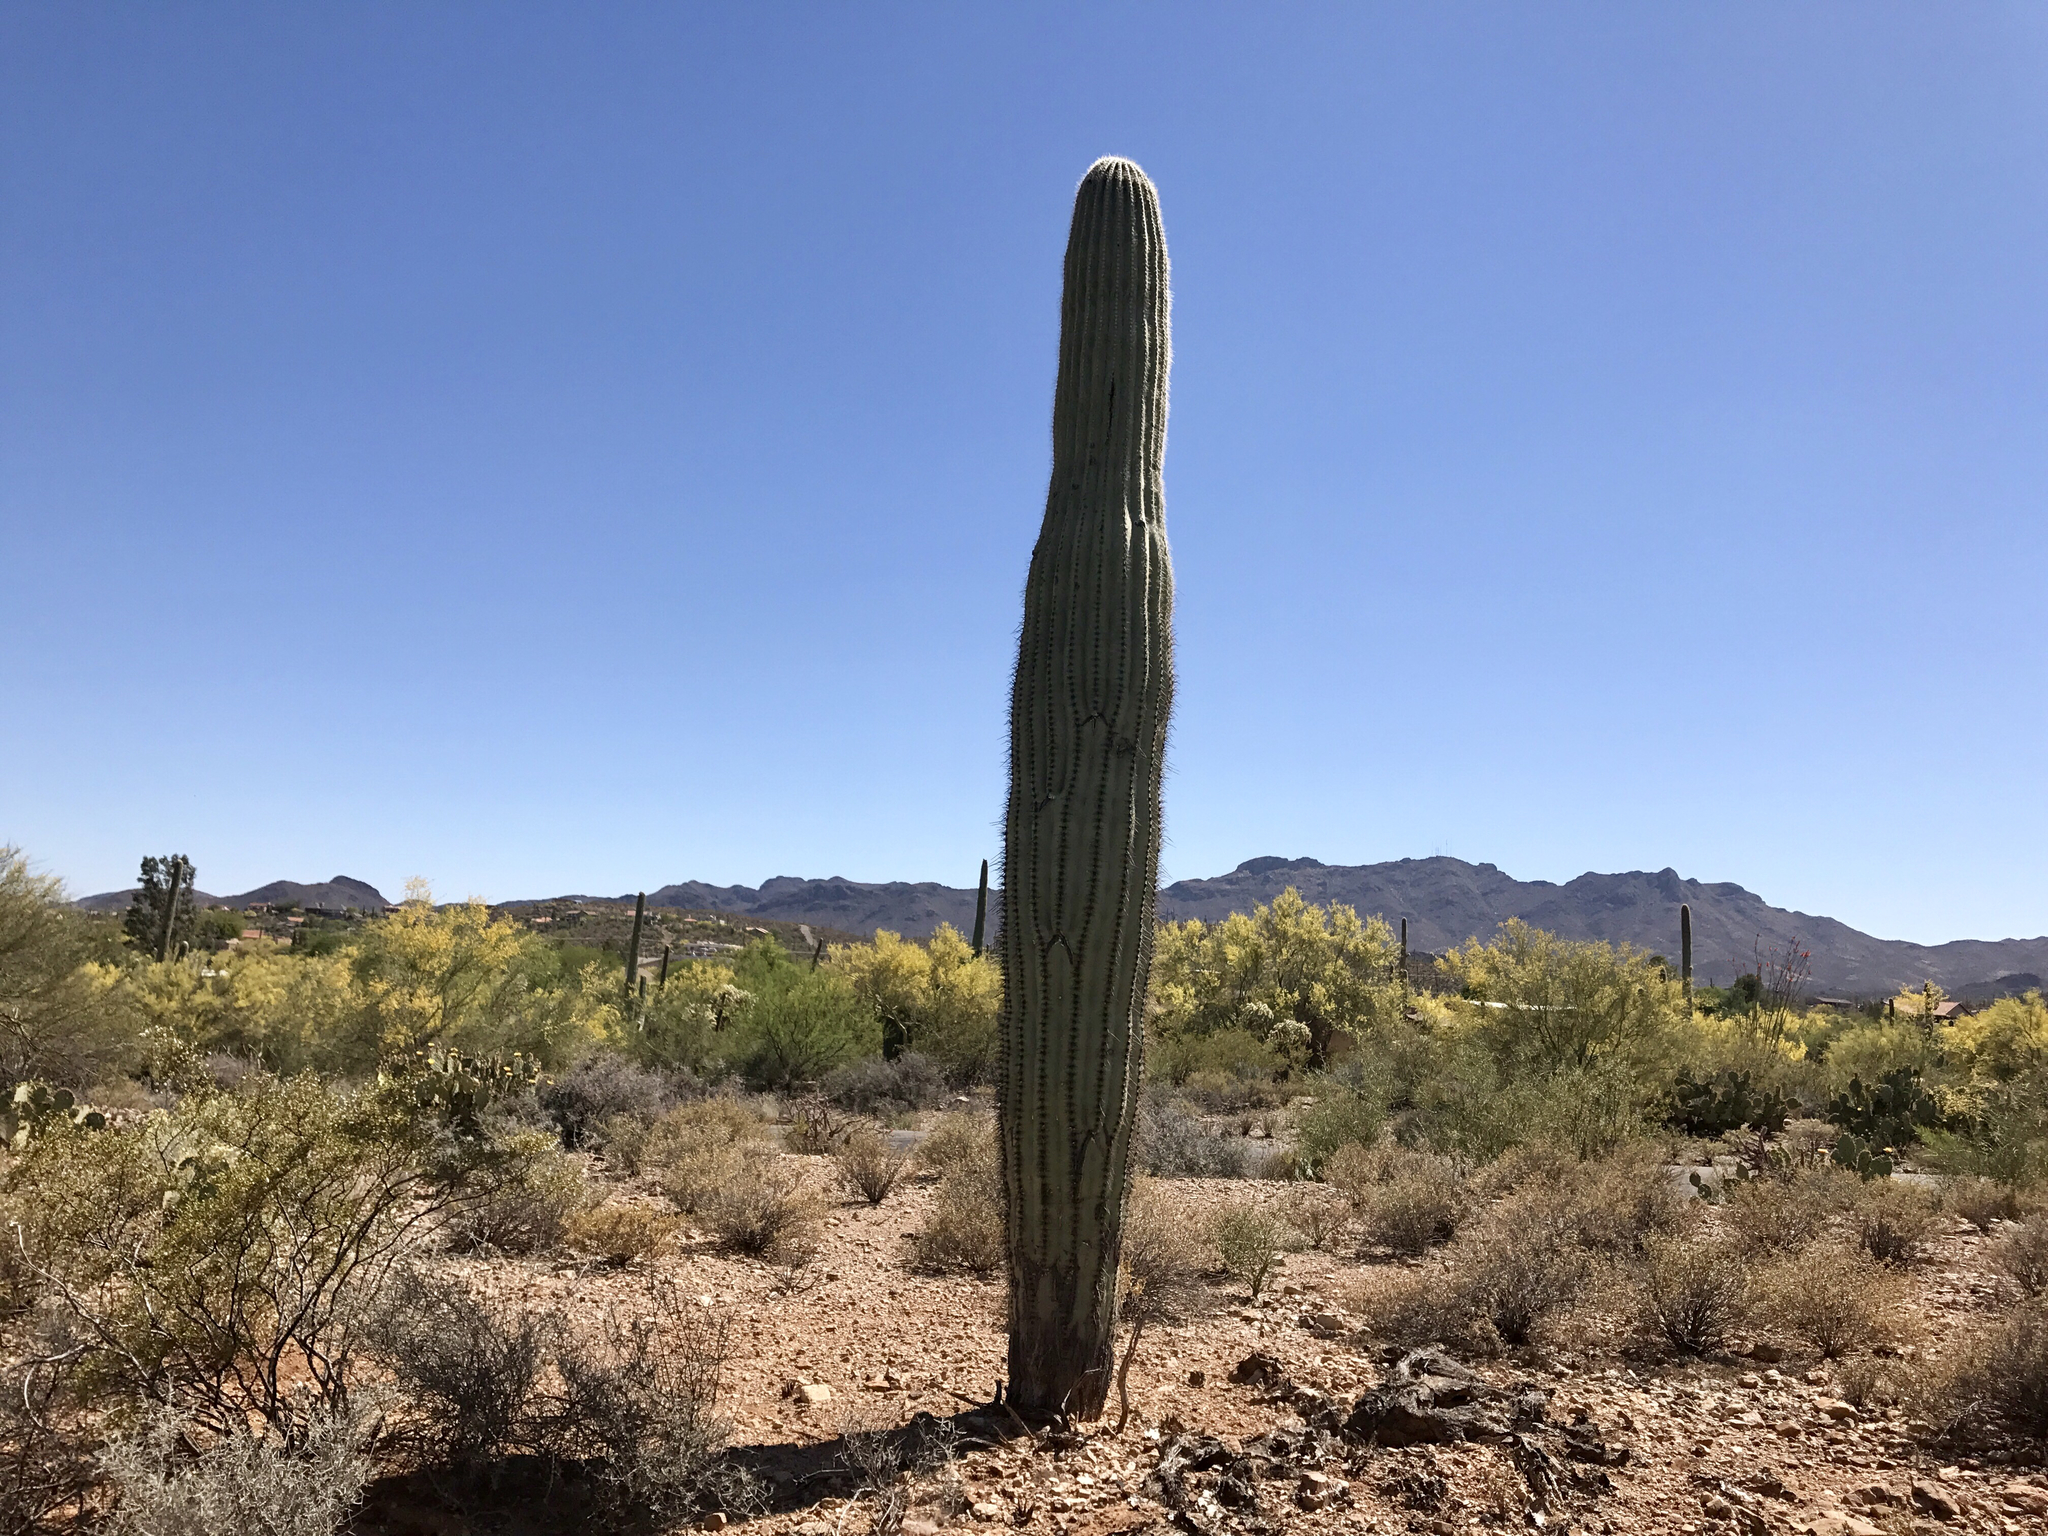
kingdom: Plantae
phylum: Tracheophyta
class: Magnoliopsida
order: Caryophyllales
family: Cactaceae
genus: Carnegiea
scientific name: Carnegiea gigantea
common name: Saguaro
